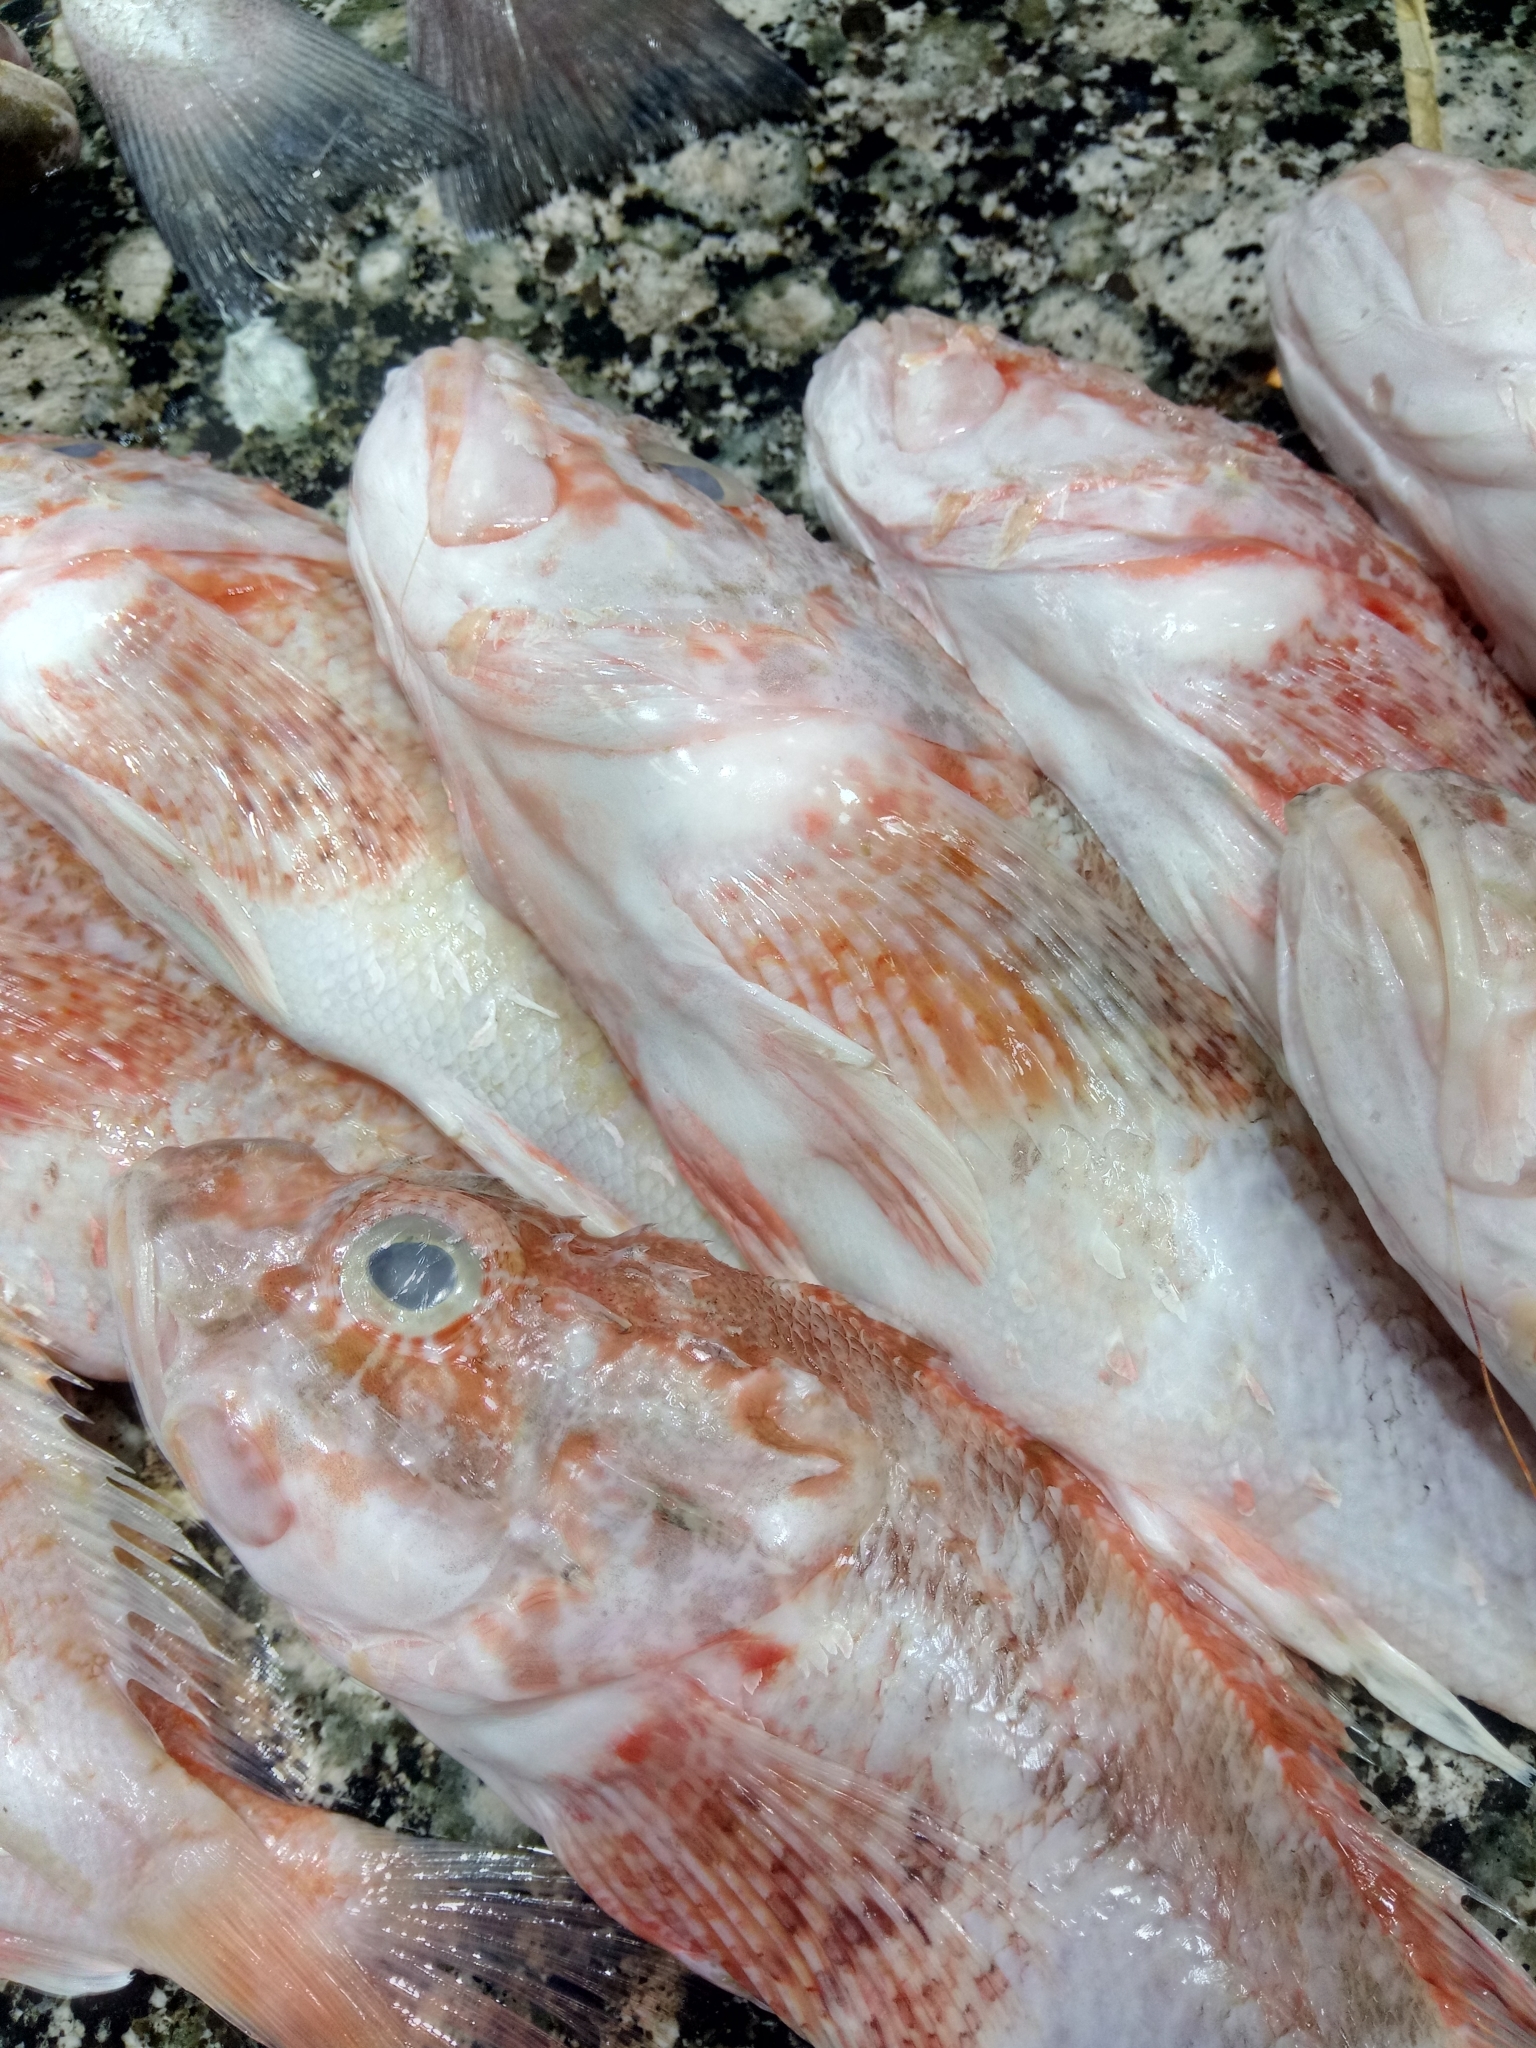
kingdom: Animalia
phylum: Chordata
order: Scorpaeniformes
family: Scorpaenidae
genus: Scorpaena
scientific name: Scorpaena elongata
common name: Slender rockfish
